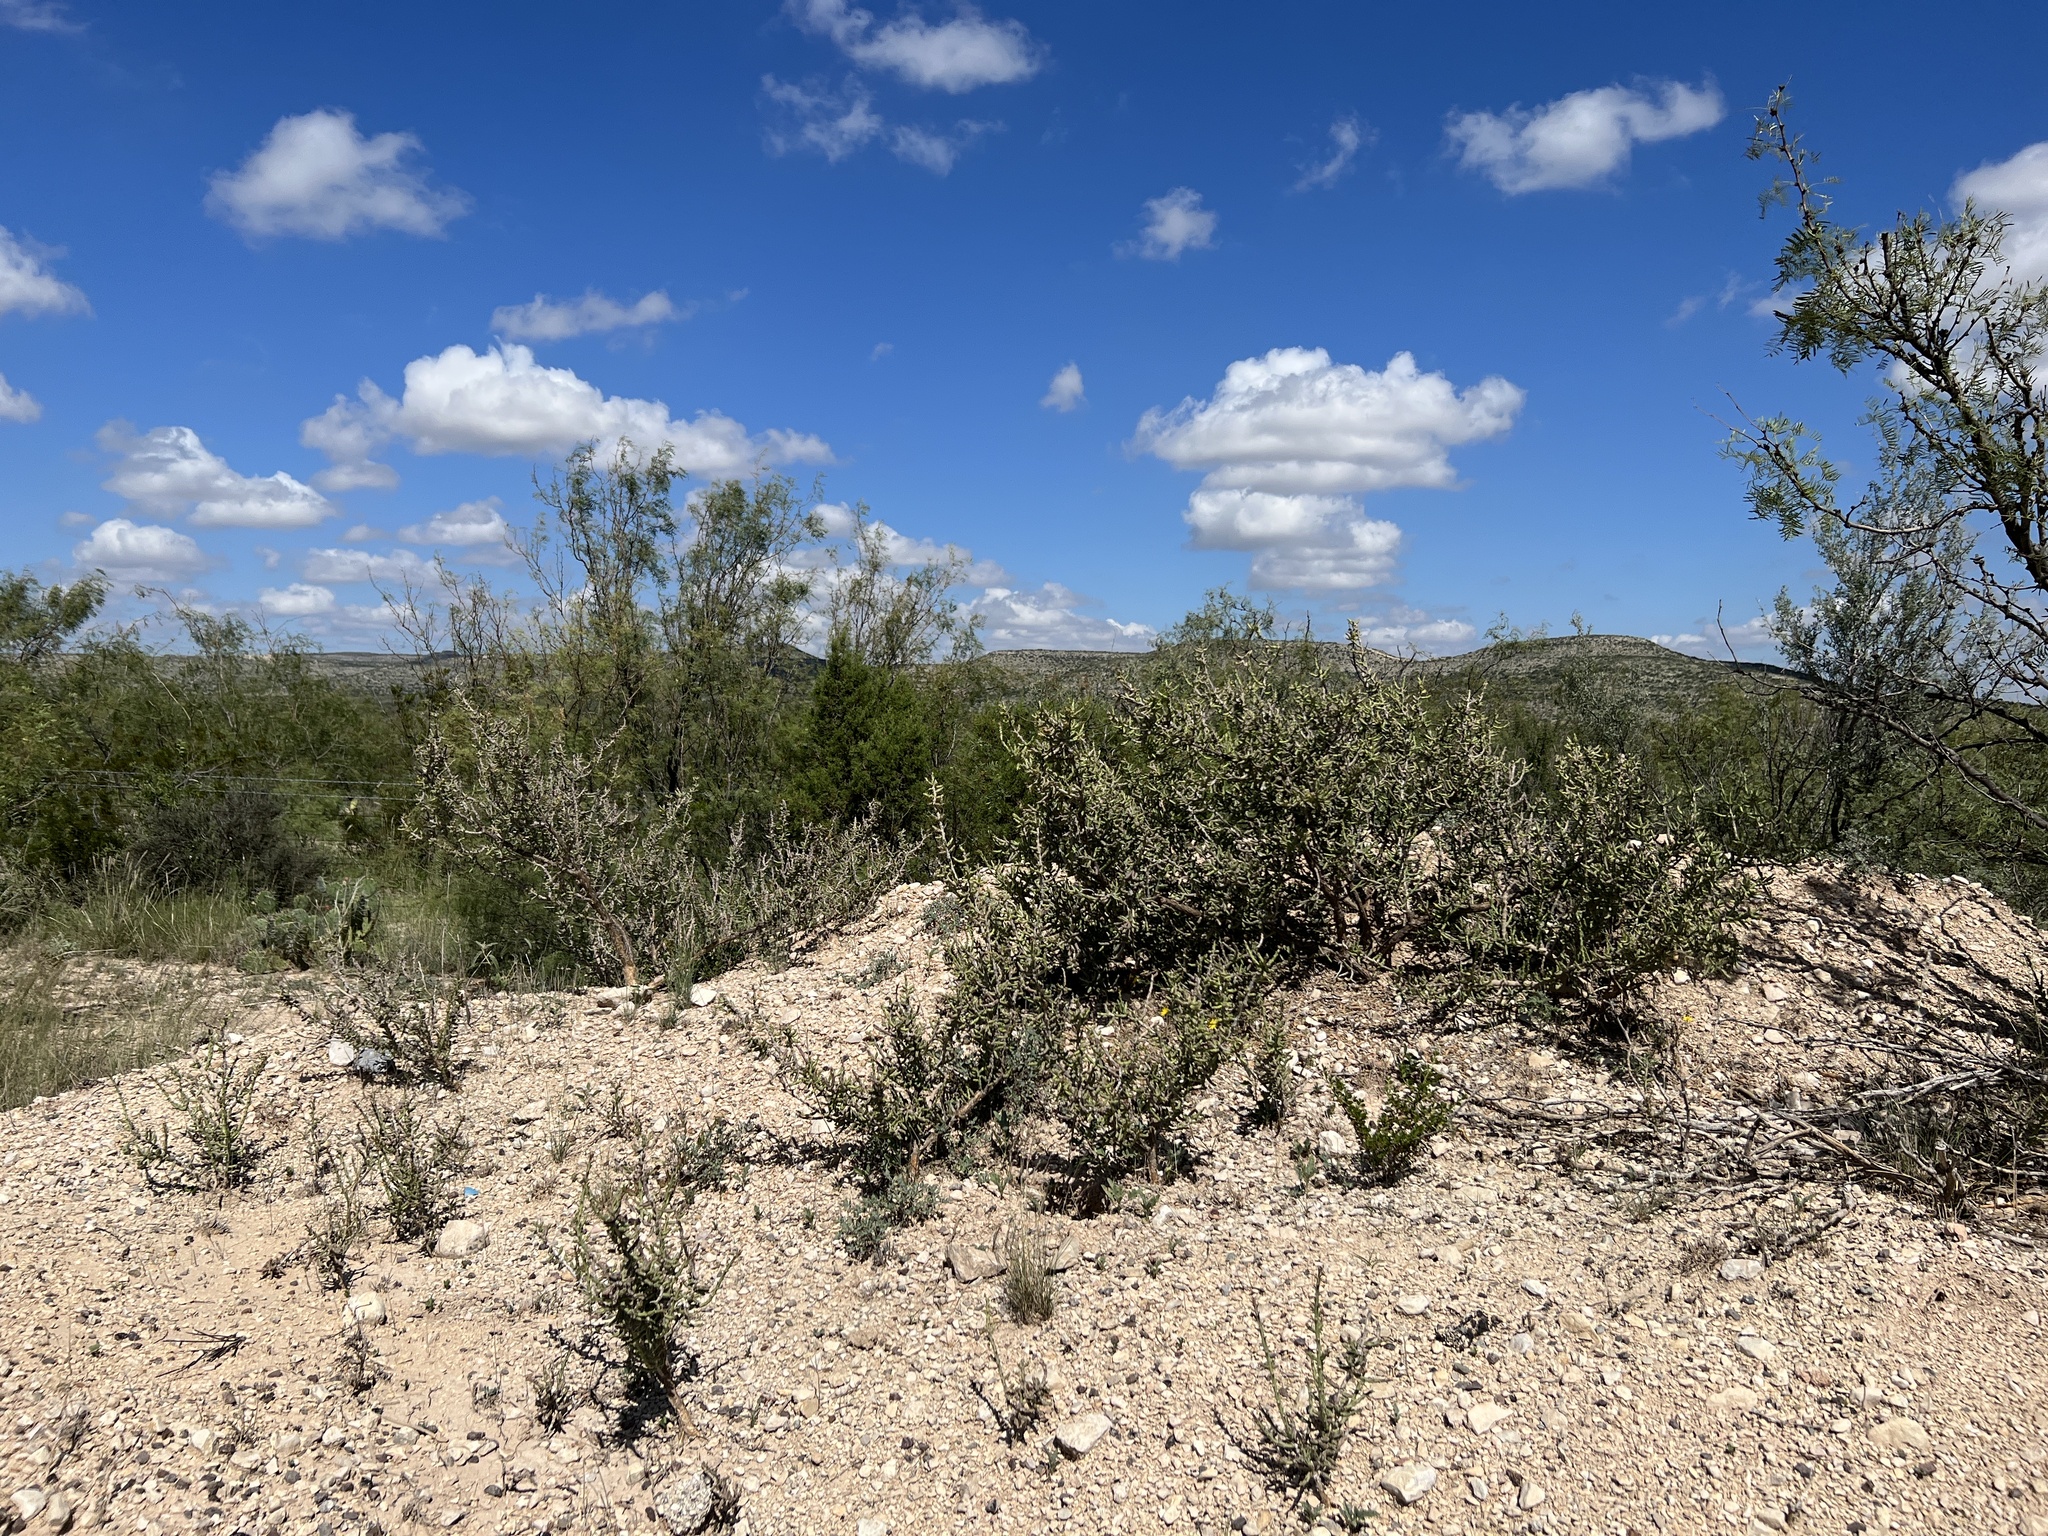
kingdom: Plantae
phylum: Tracheophyta
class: Magnoliopsida
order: Caryophyllales
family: Cactaceae
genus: Cylindropuntia
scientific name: Cylindropuntia leptocaulis
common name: Christmas cactus
